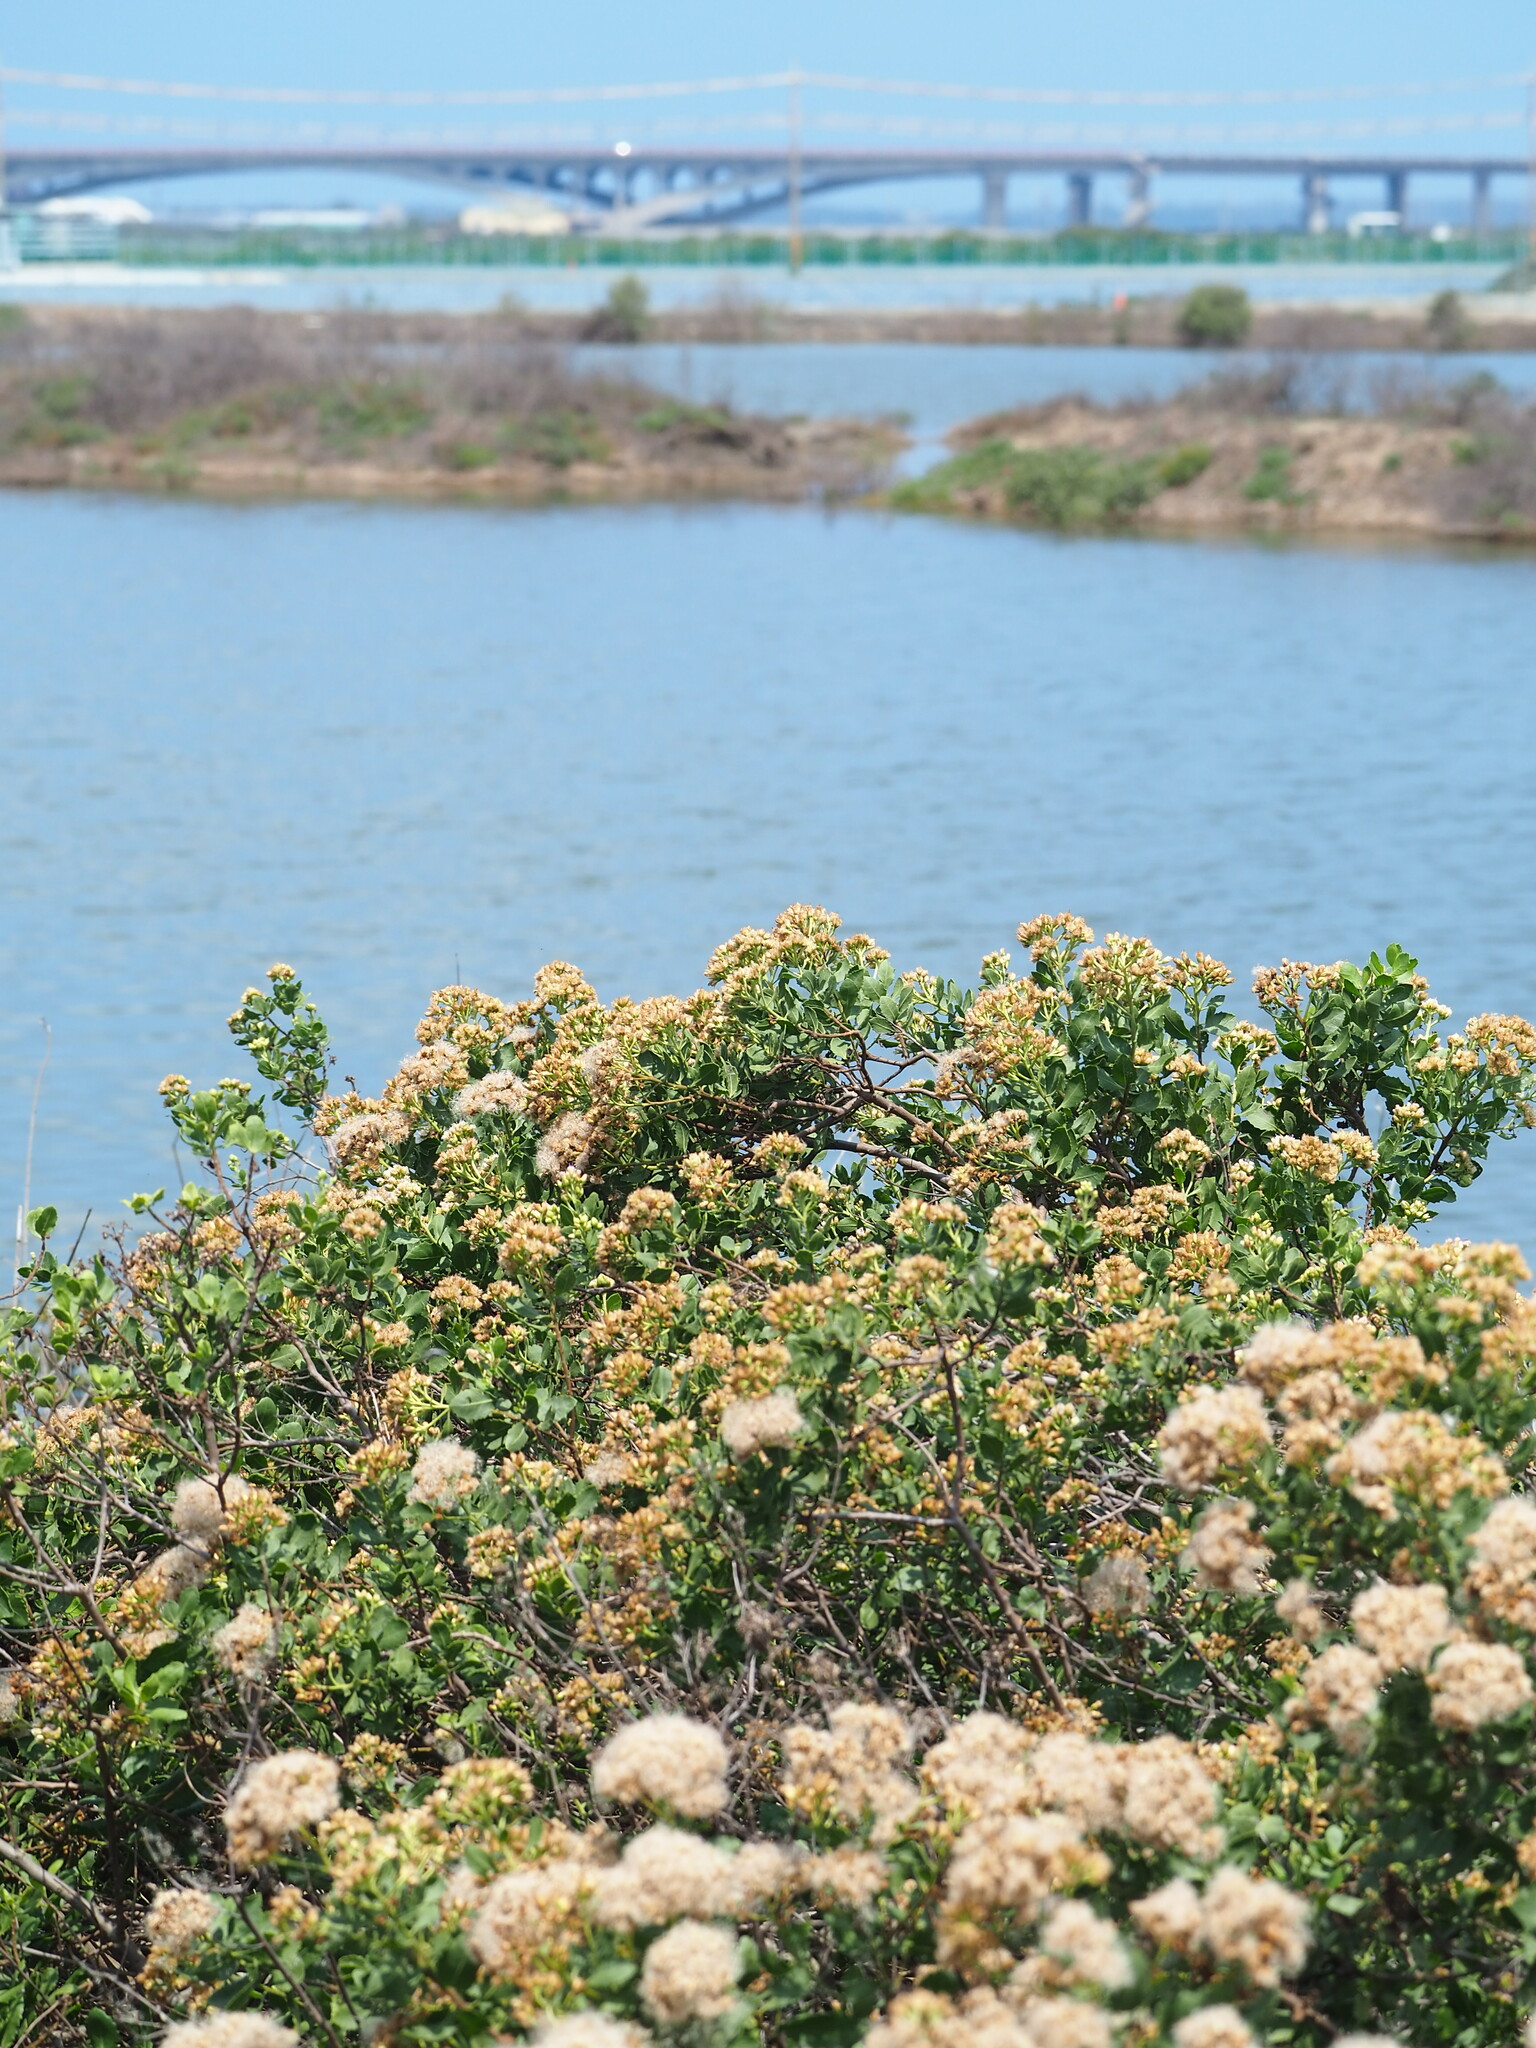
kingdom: Plantae
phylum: Tracheophyta
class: Magnoliopsida
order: Asterales
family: Asteraceae
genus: Pluchea
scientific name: Pluchea indica
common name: Indian fleabane
